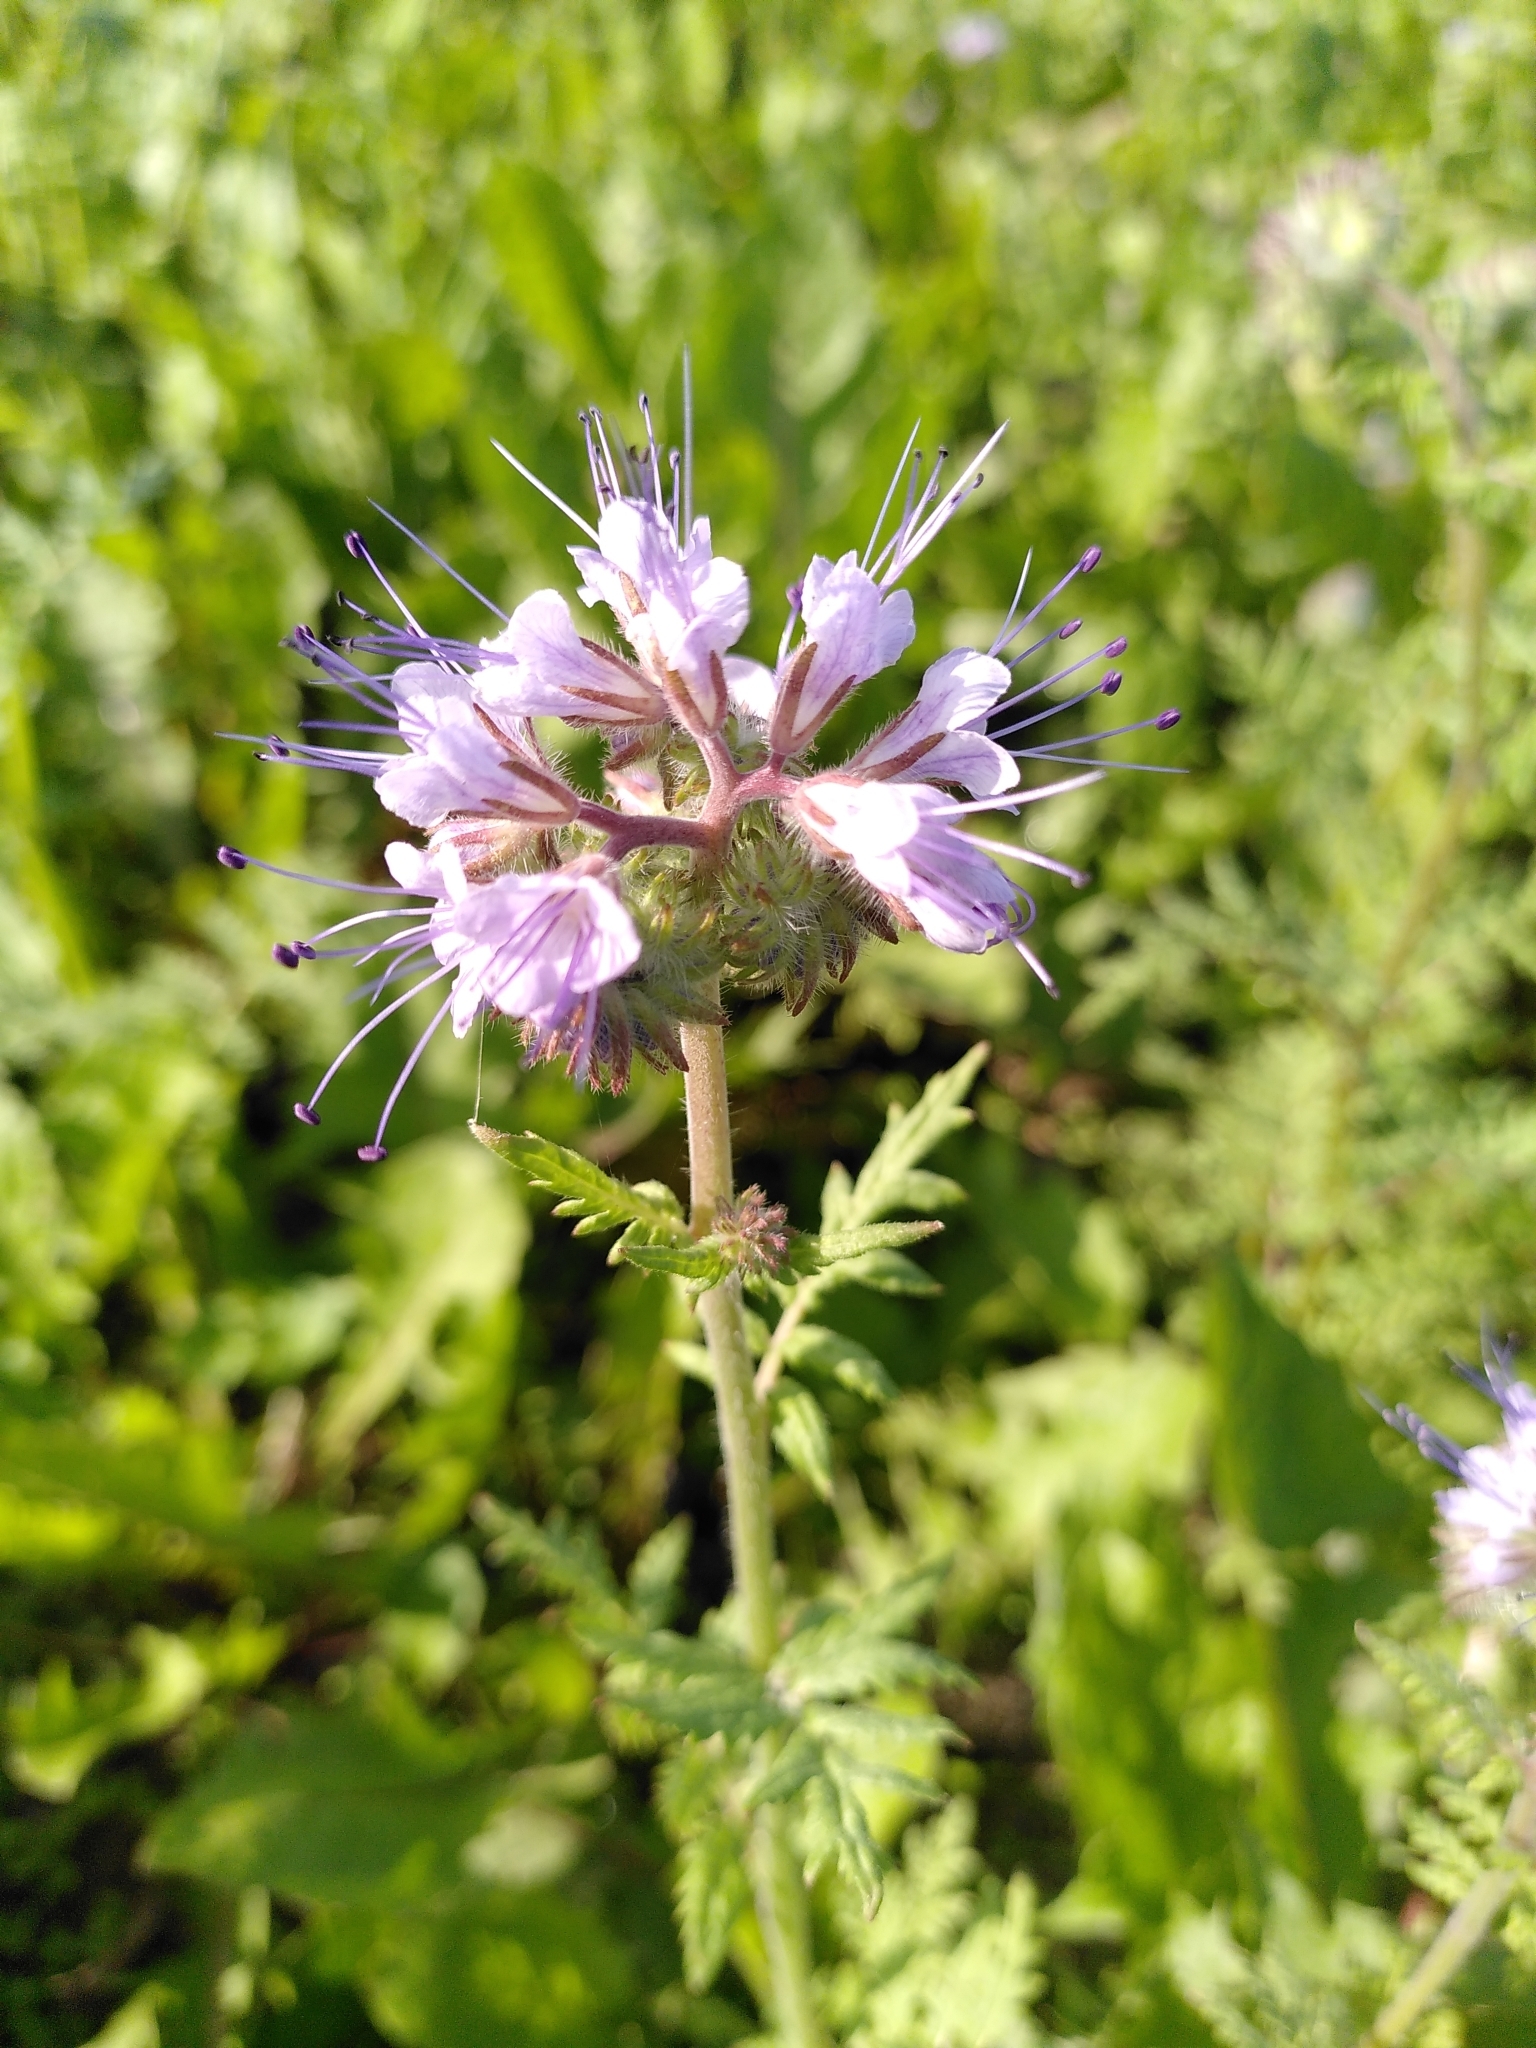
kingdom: Plantae
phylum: Tracheophyta
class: Magnoliopsida
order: Boraginales
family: Hydrophyllaceae
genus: Phacelia
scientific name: Phacelia tanacetifolia
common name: Phacelia
